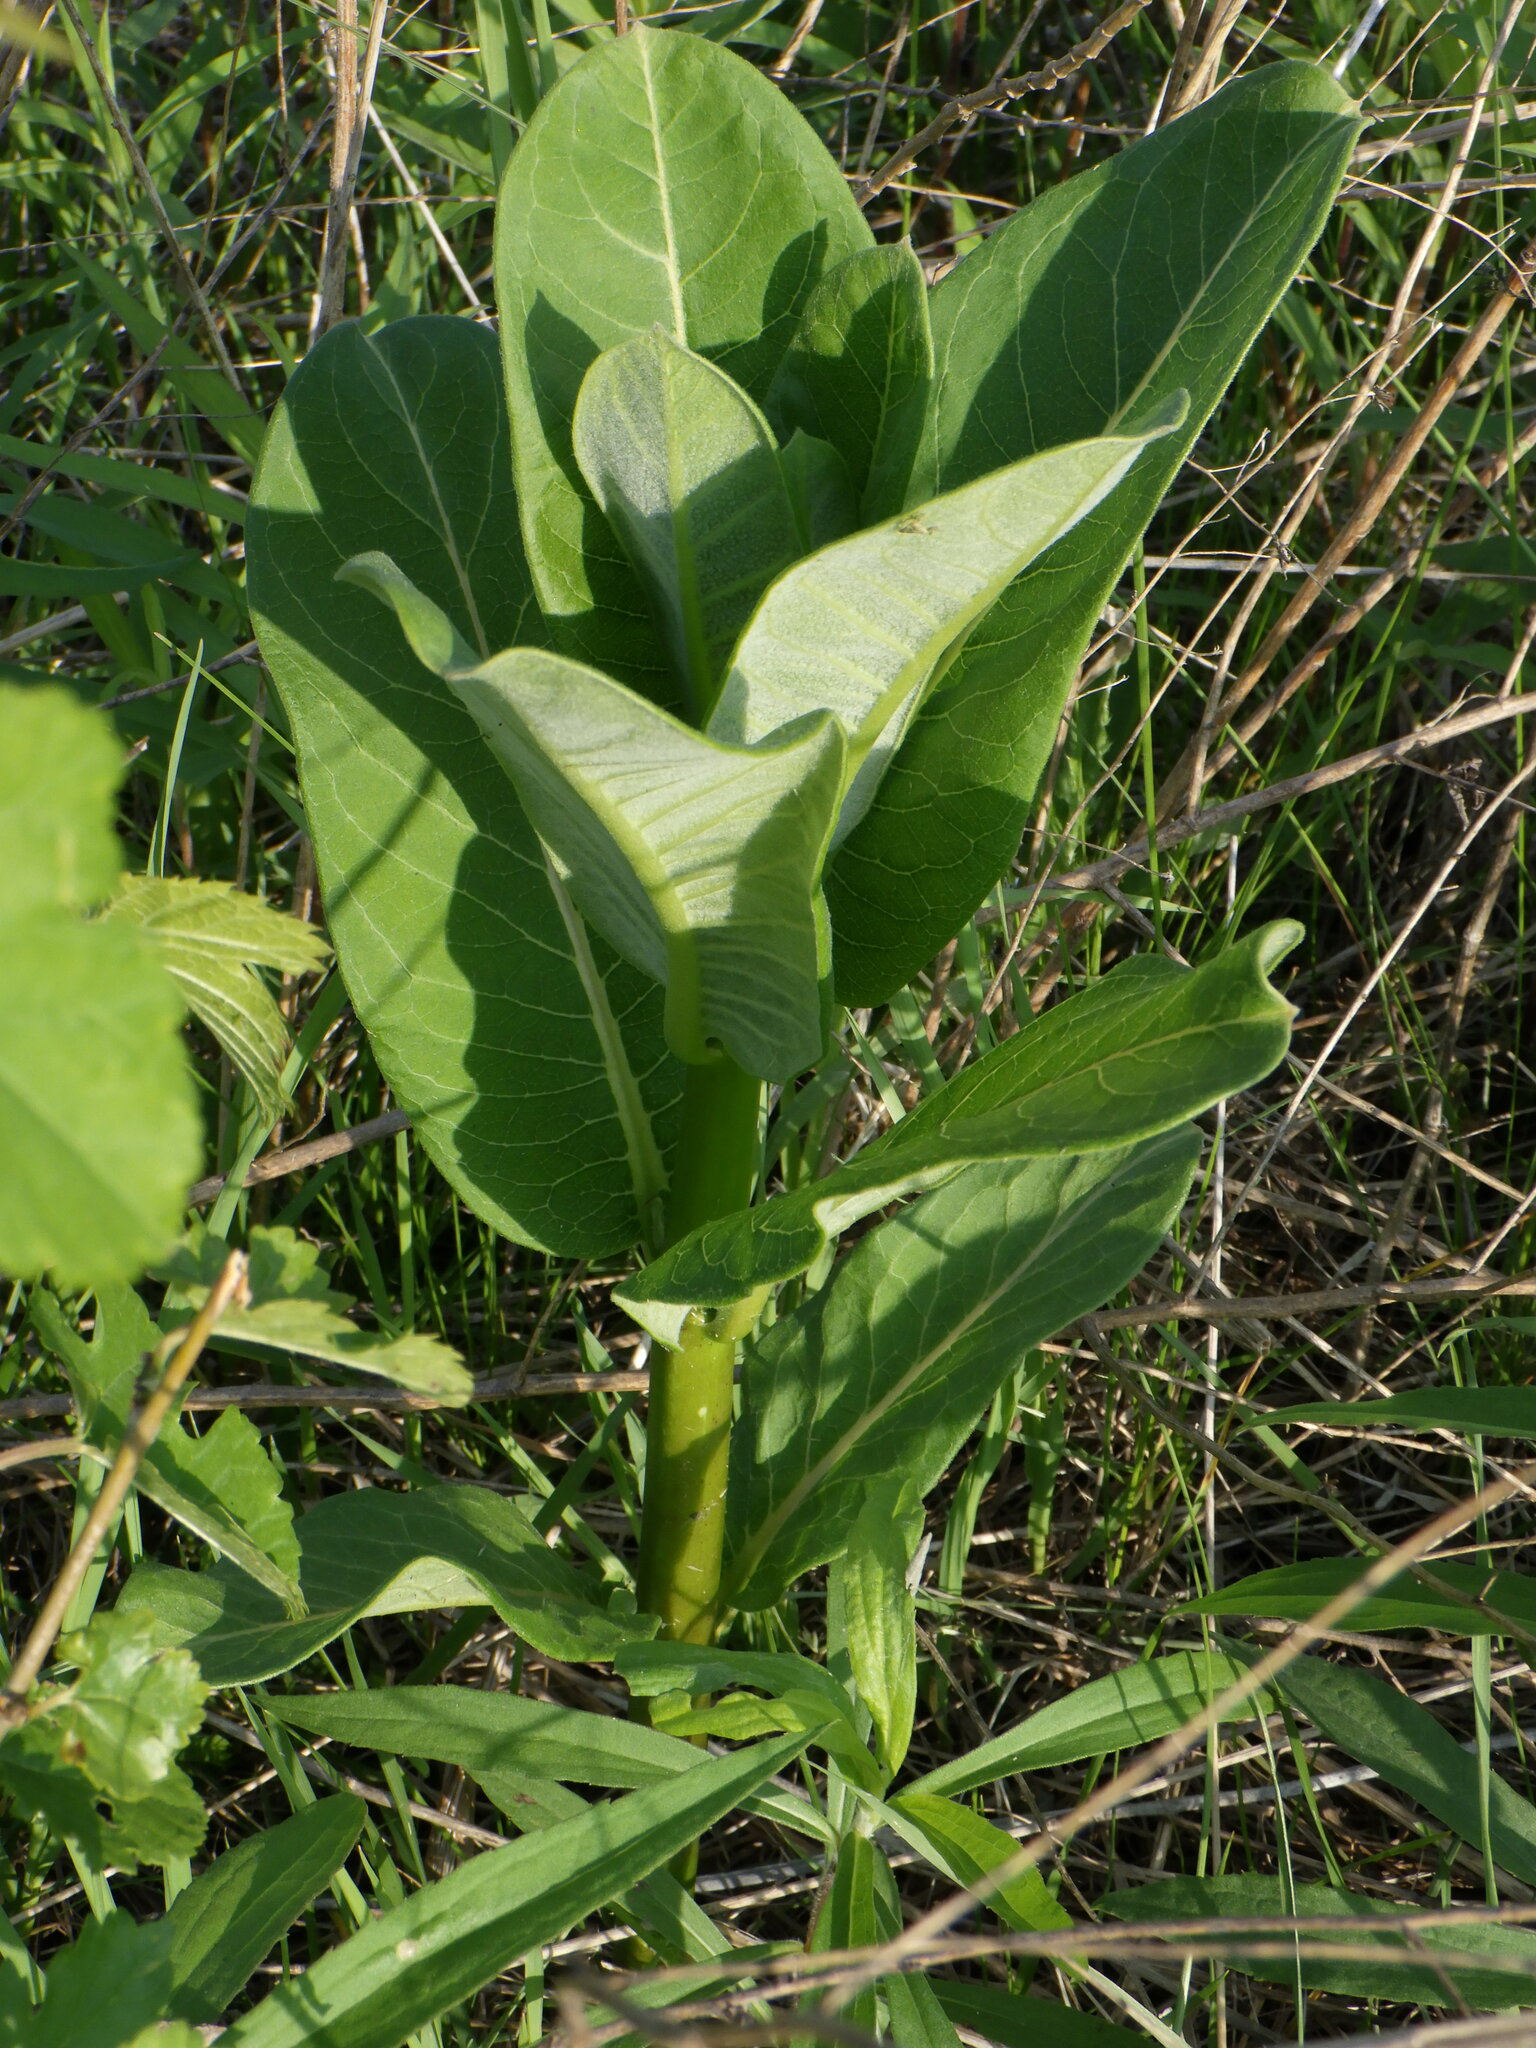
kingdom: Plantae
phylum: Tracheophyta
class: Magnoliopsida
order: Gentianales
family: Apocynaceae
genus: Asclepias
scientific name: Asclepias syriaca
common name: Common milkweed
